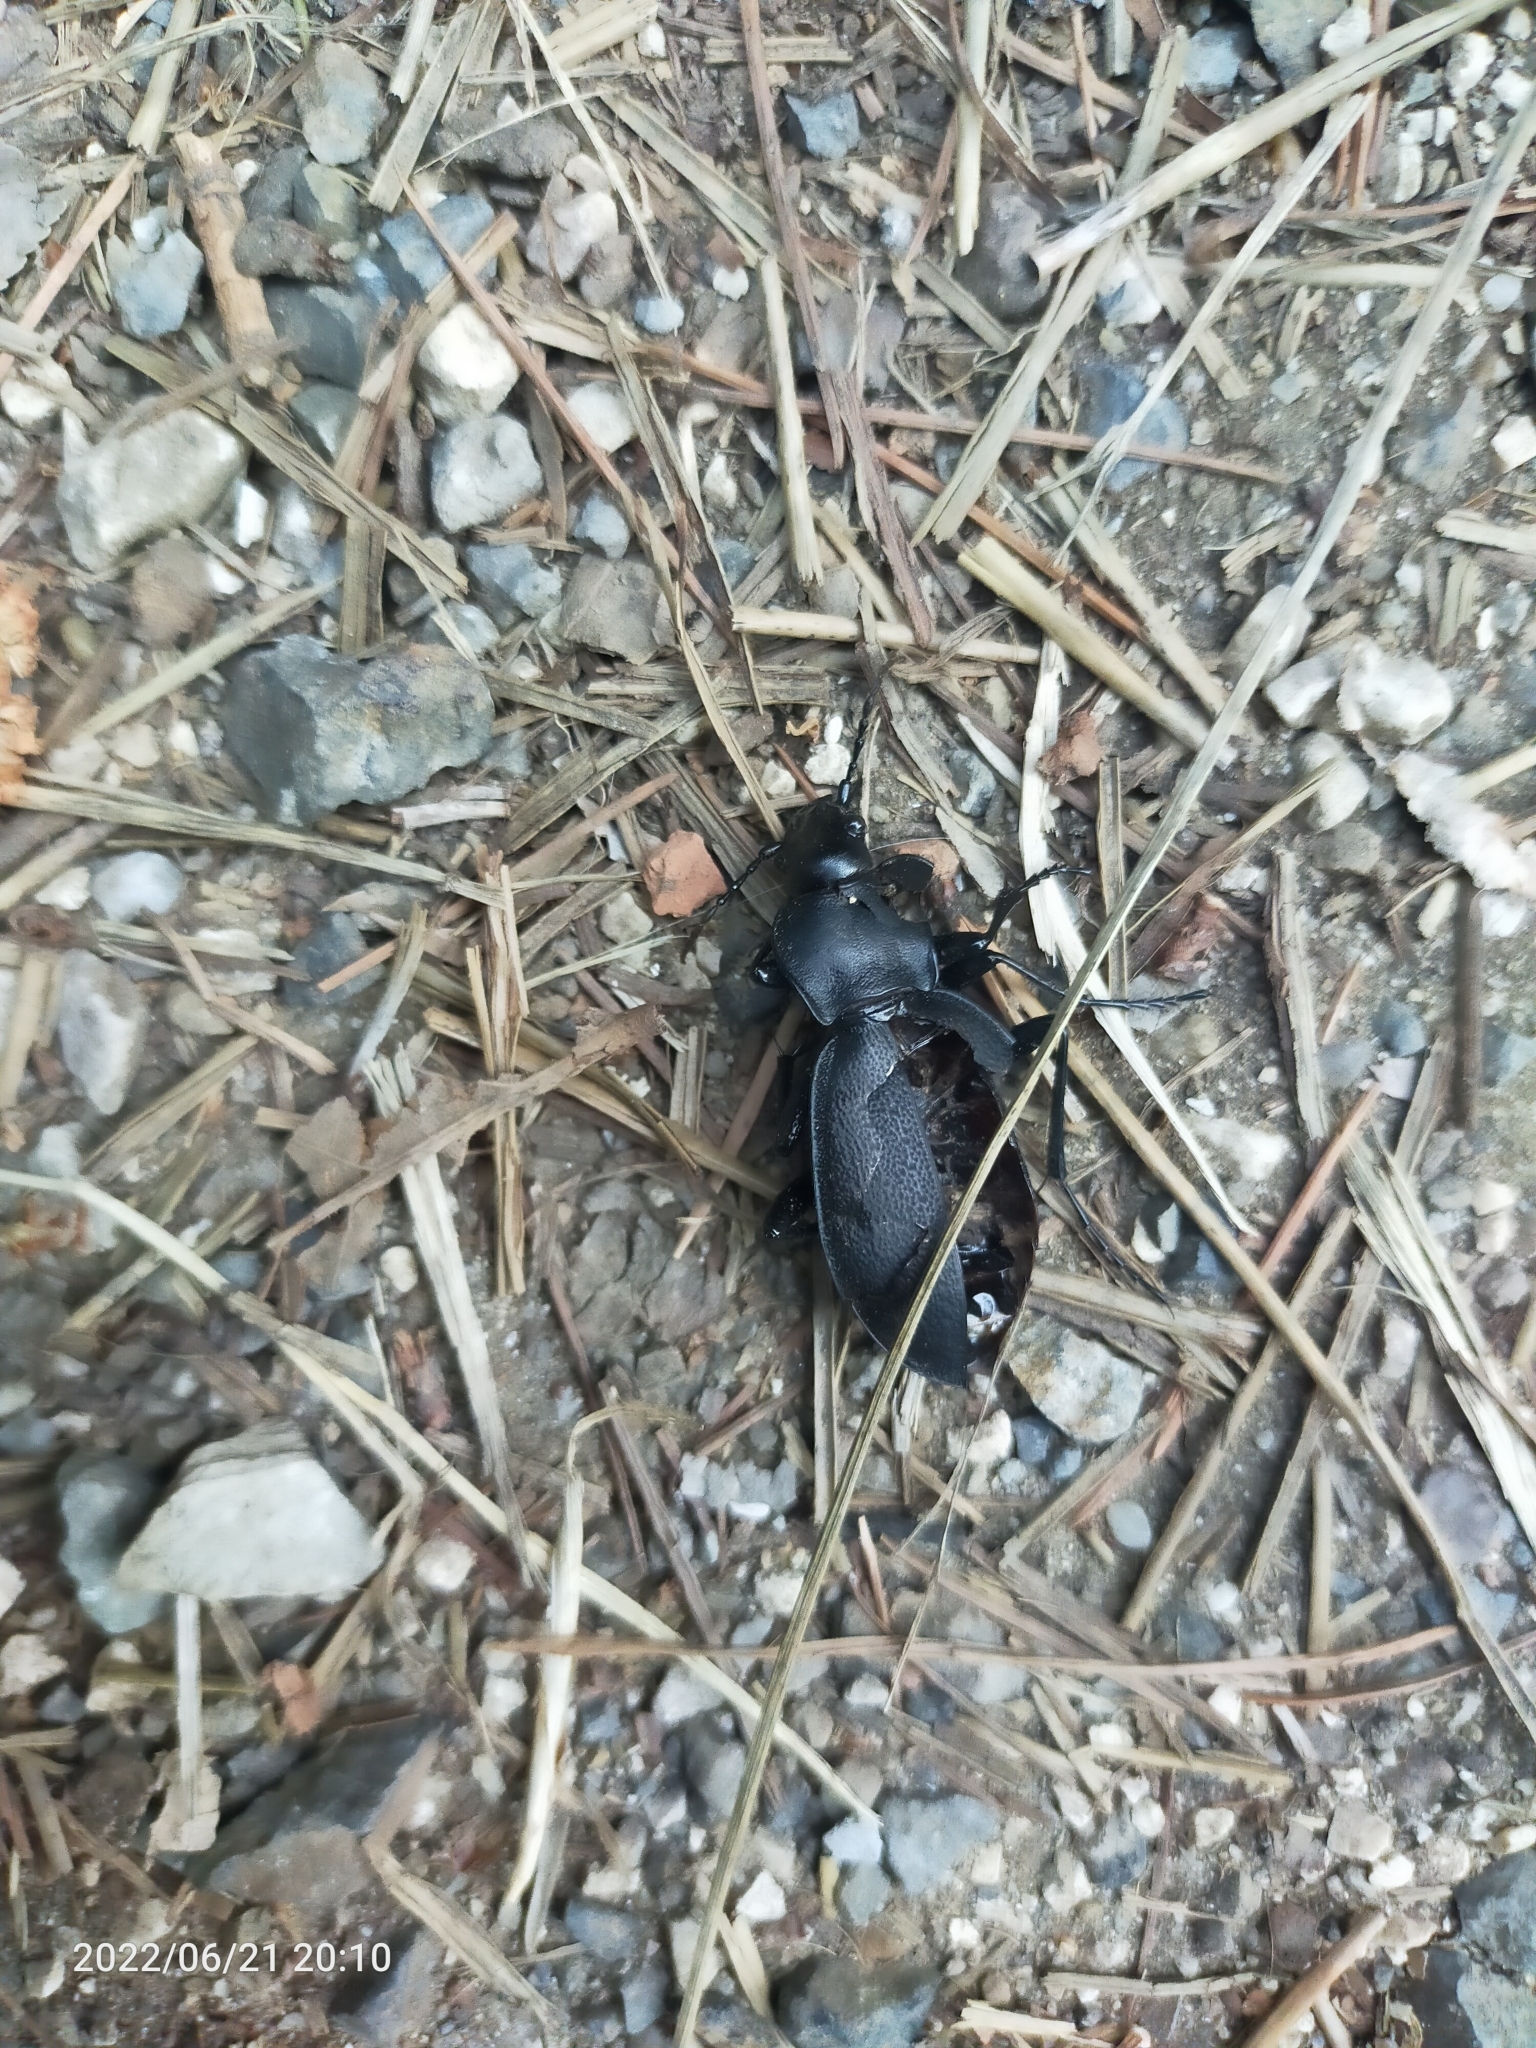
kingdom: Animalia
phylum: Arthropoda
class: Insecta
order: Coleoptera
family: Carabidae
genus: Carabus
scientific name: Carabus coriaceus
